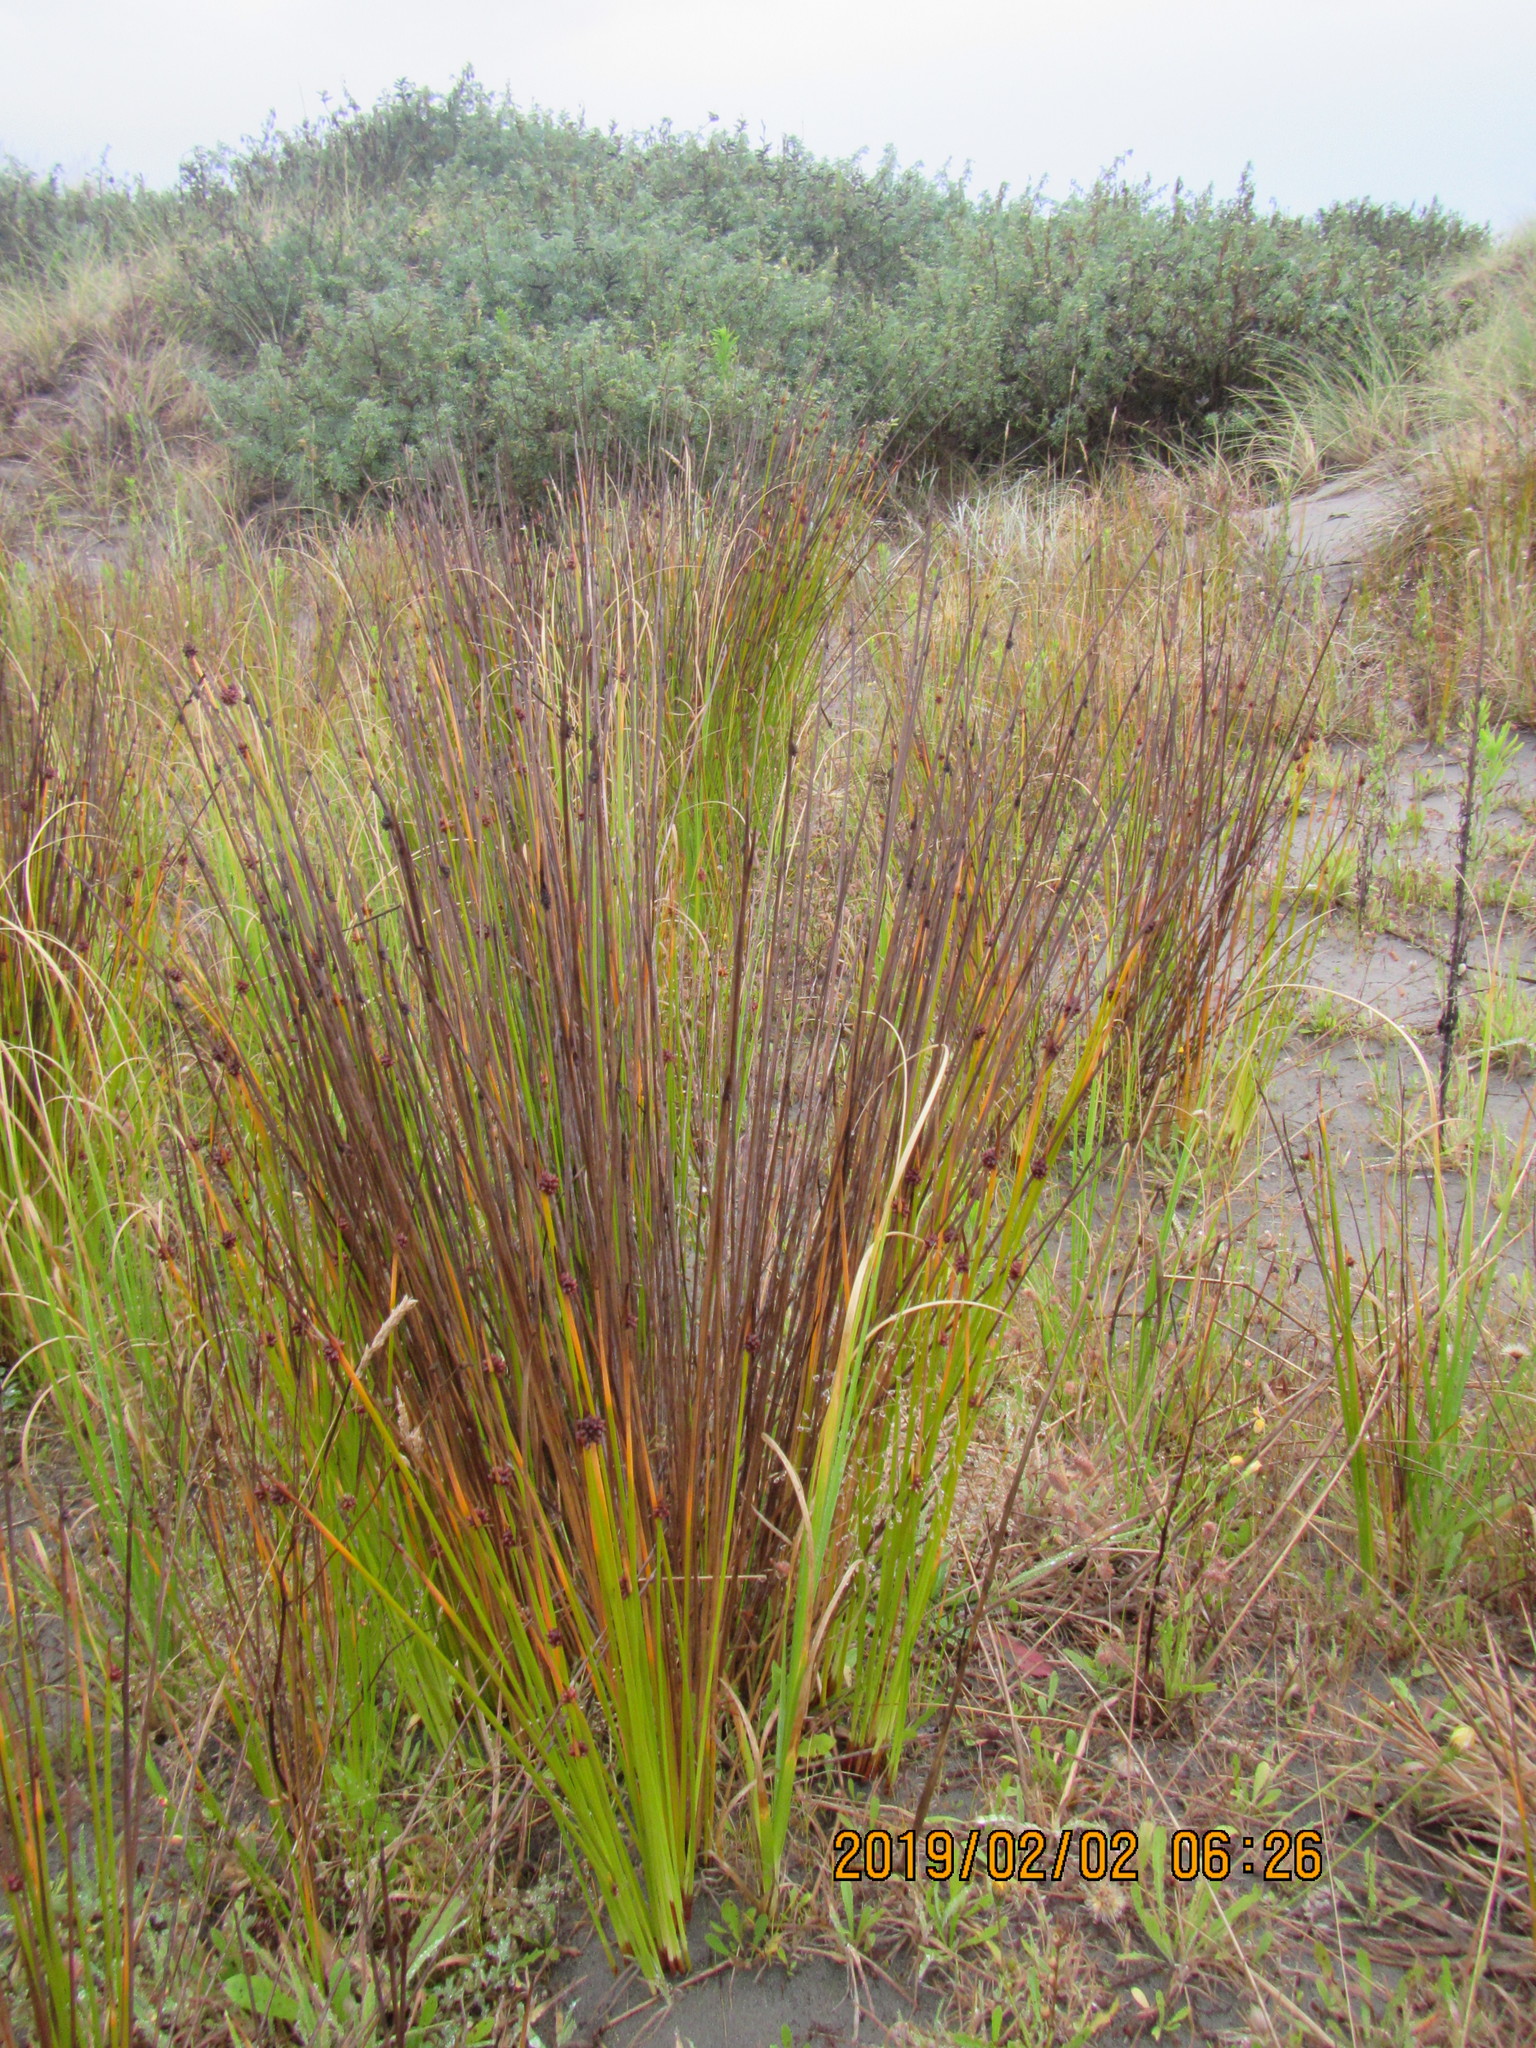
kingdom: Plantae
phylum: Tracheophyta
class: Liliopsida
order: Poales
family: Cyperaceae
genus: Ficinia
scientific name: Ficinia nodosa
